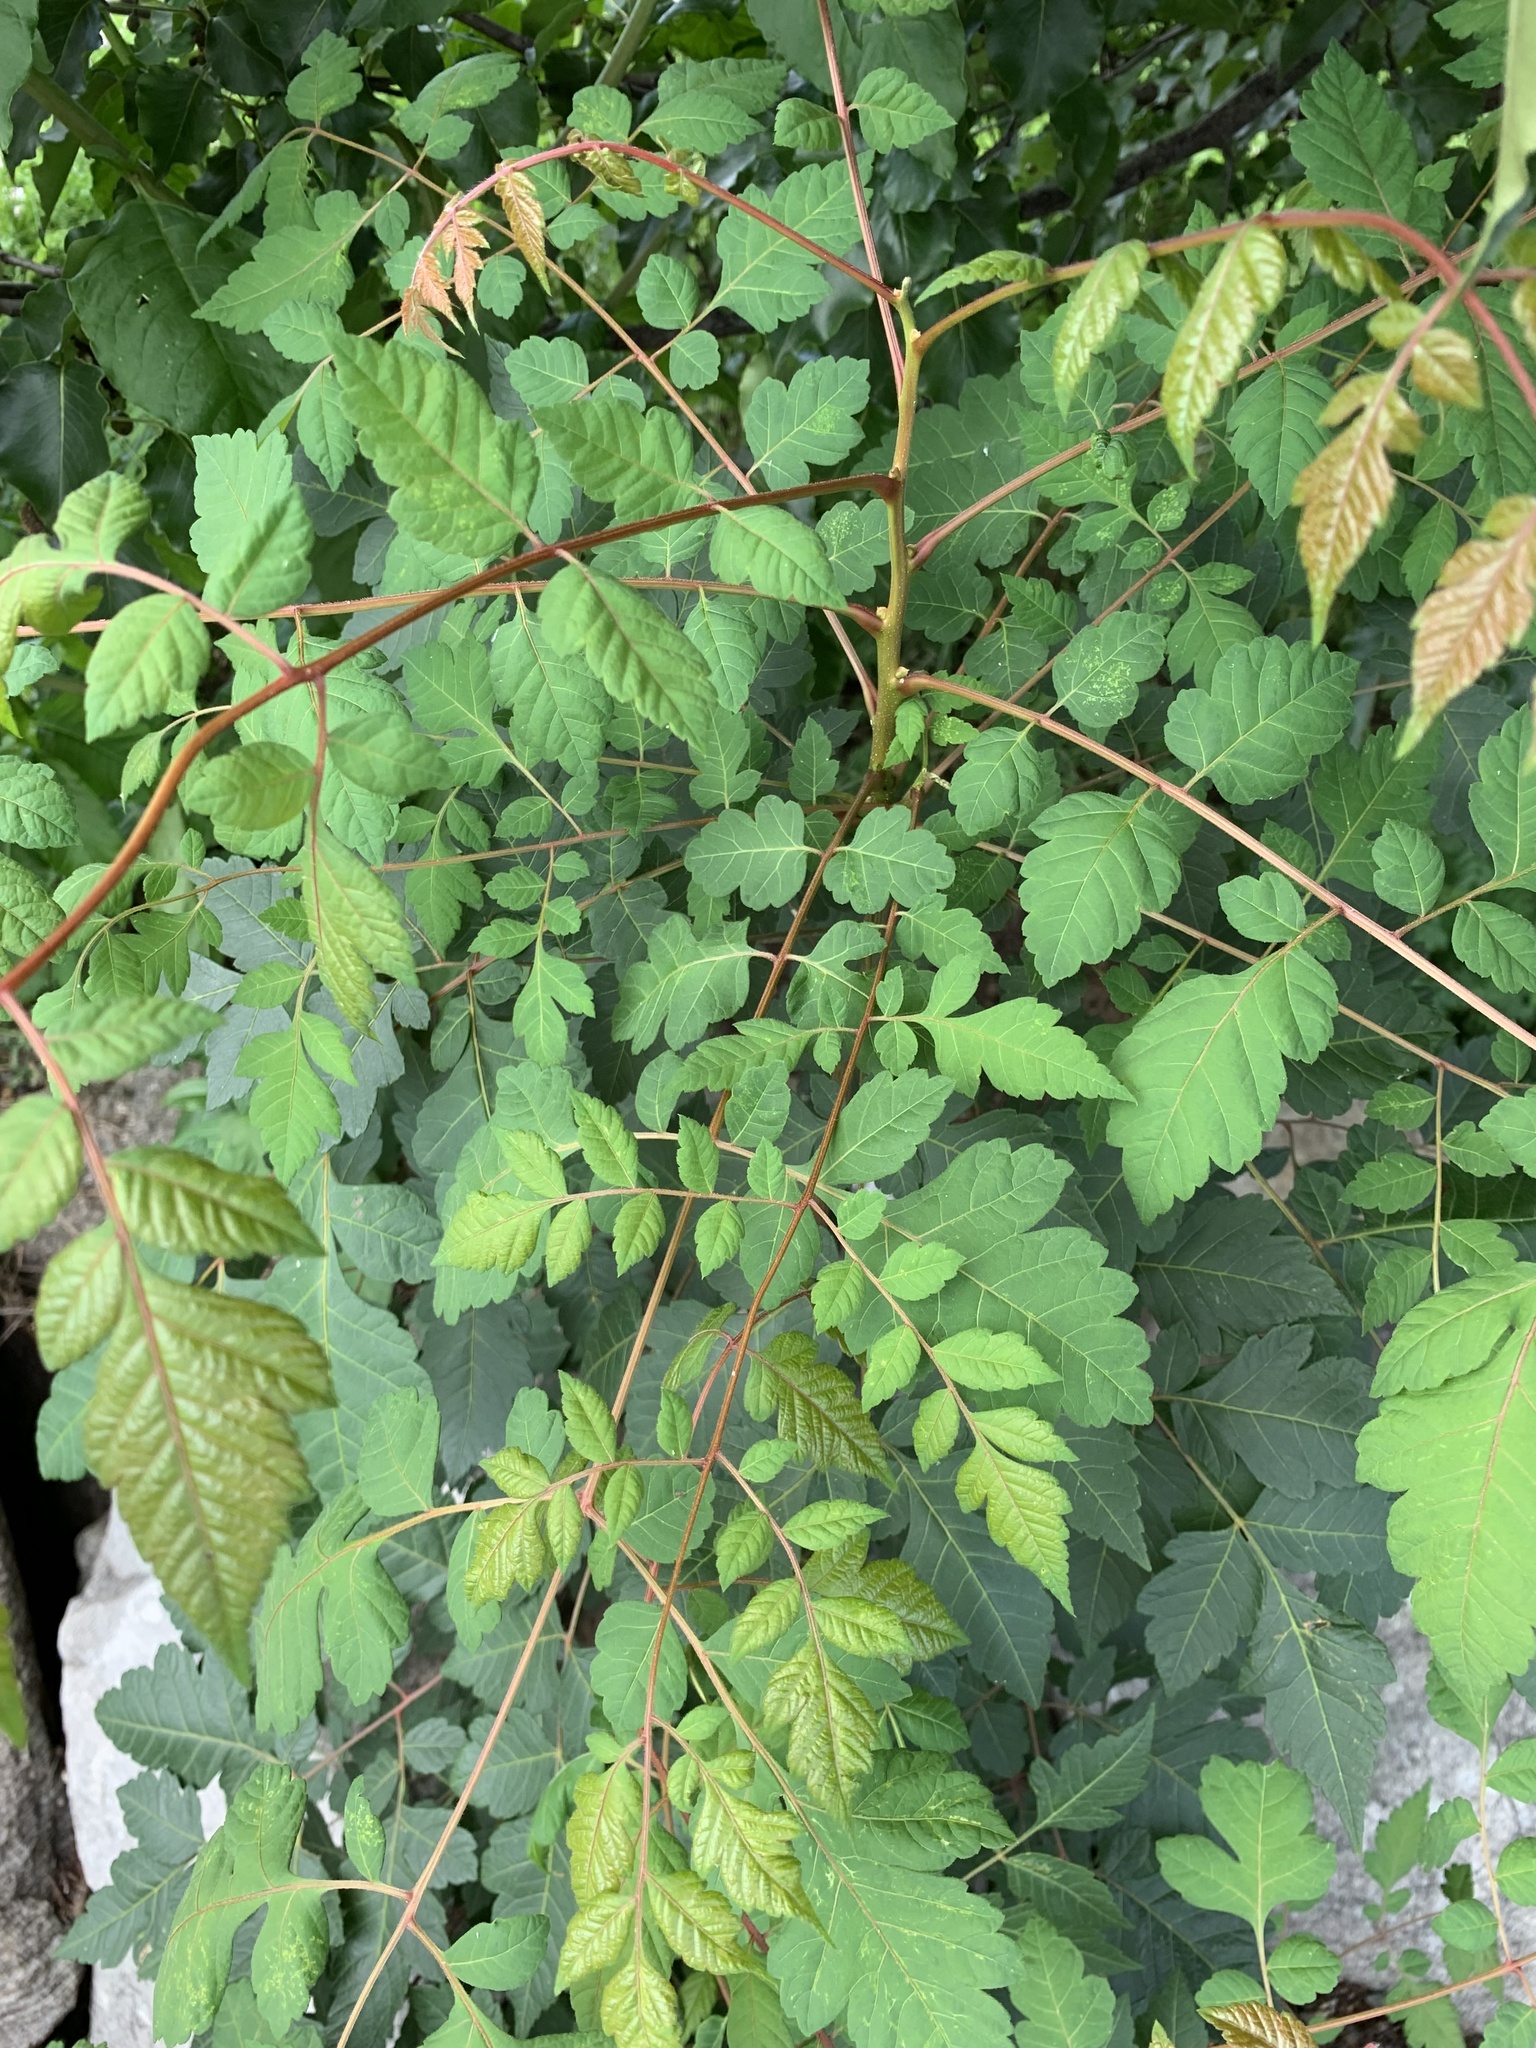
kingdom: Plantae
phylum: Tracheophyta
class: Magnoliopsida
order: Sapindales
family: Sapindaceae
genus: Koelreuteria
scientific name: Koelreuteria paniculata
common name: Pride-of-india
